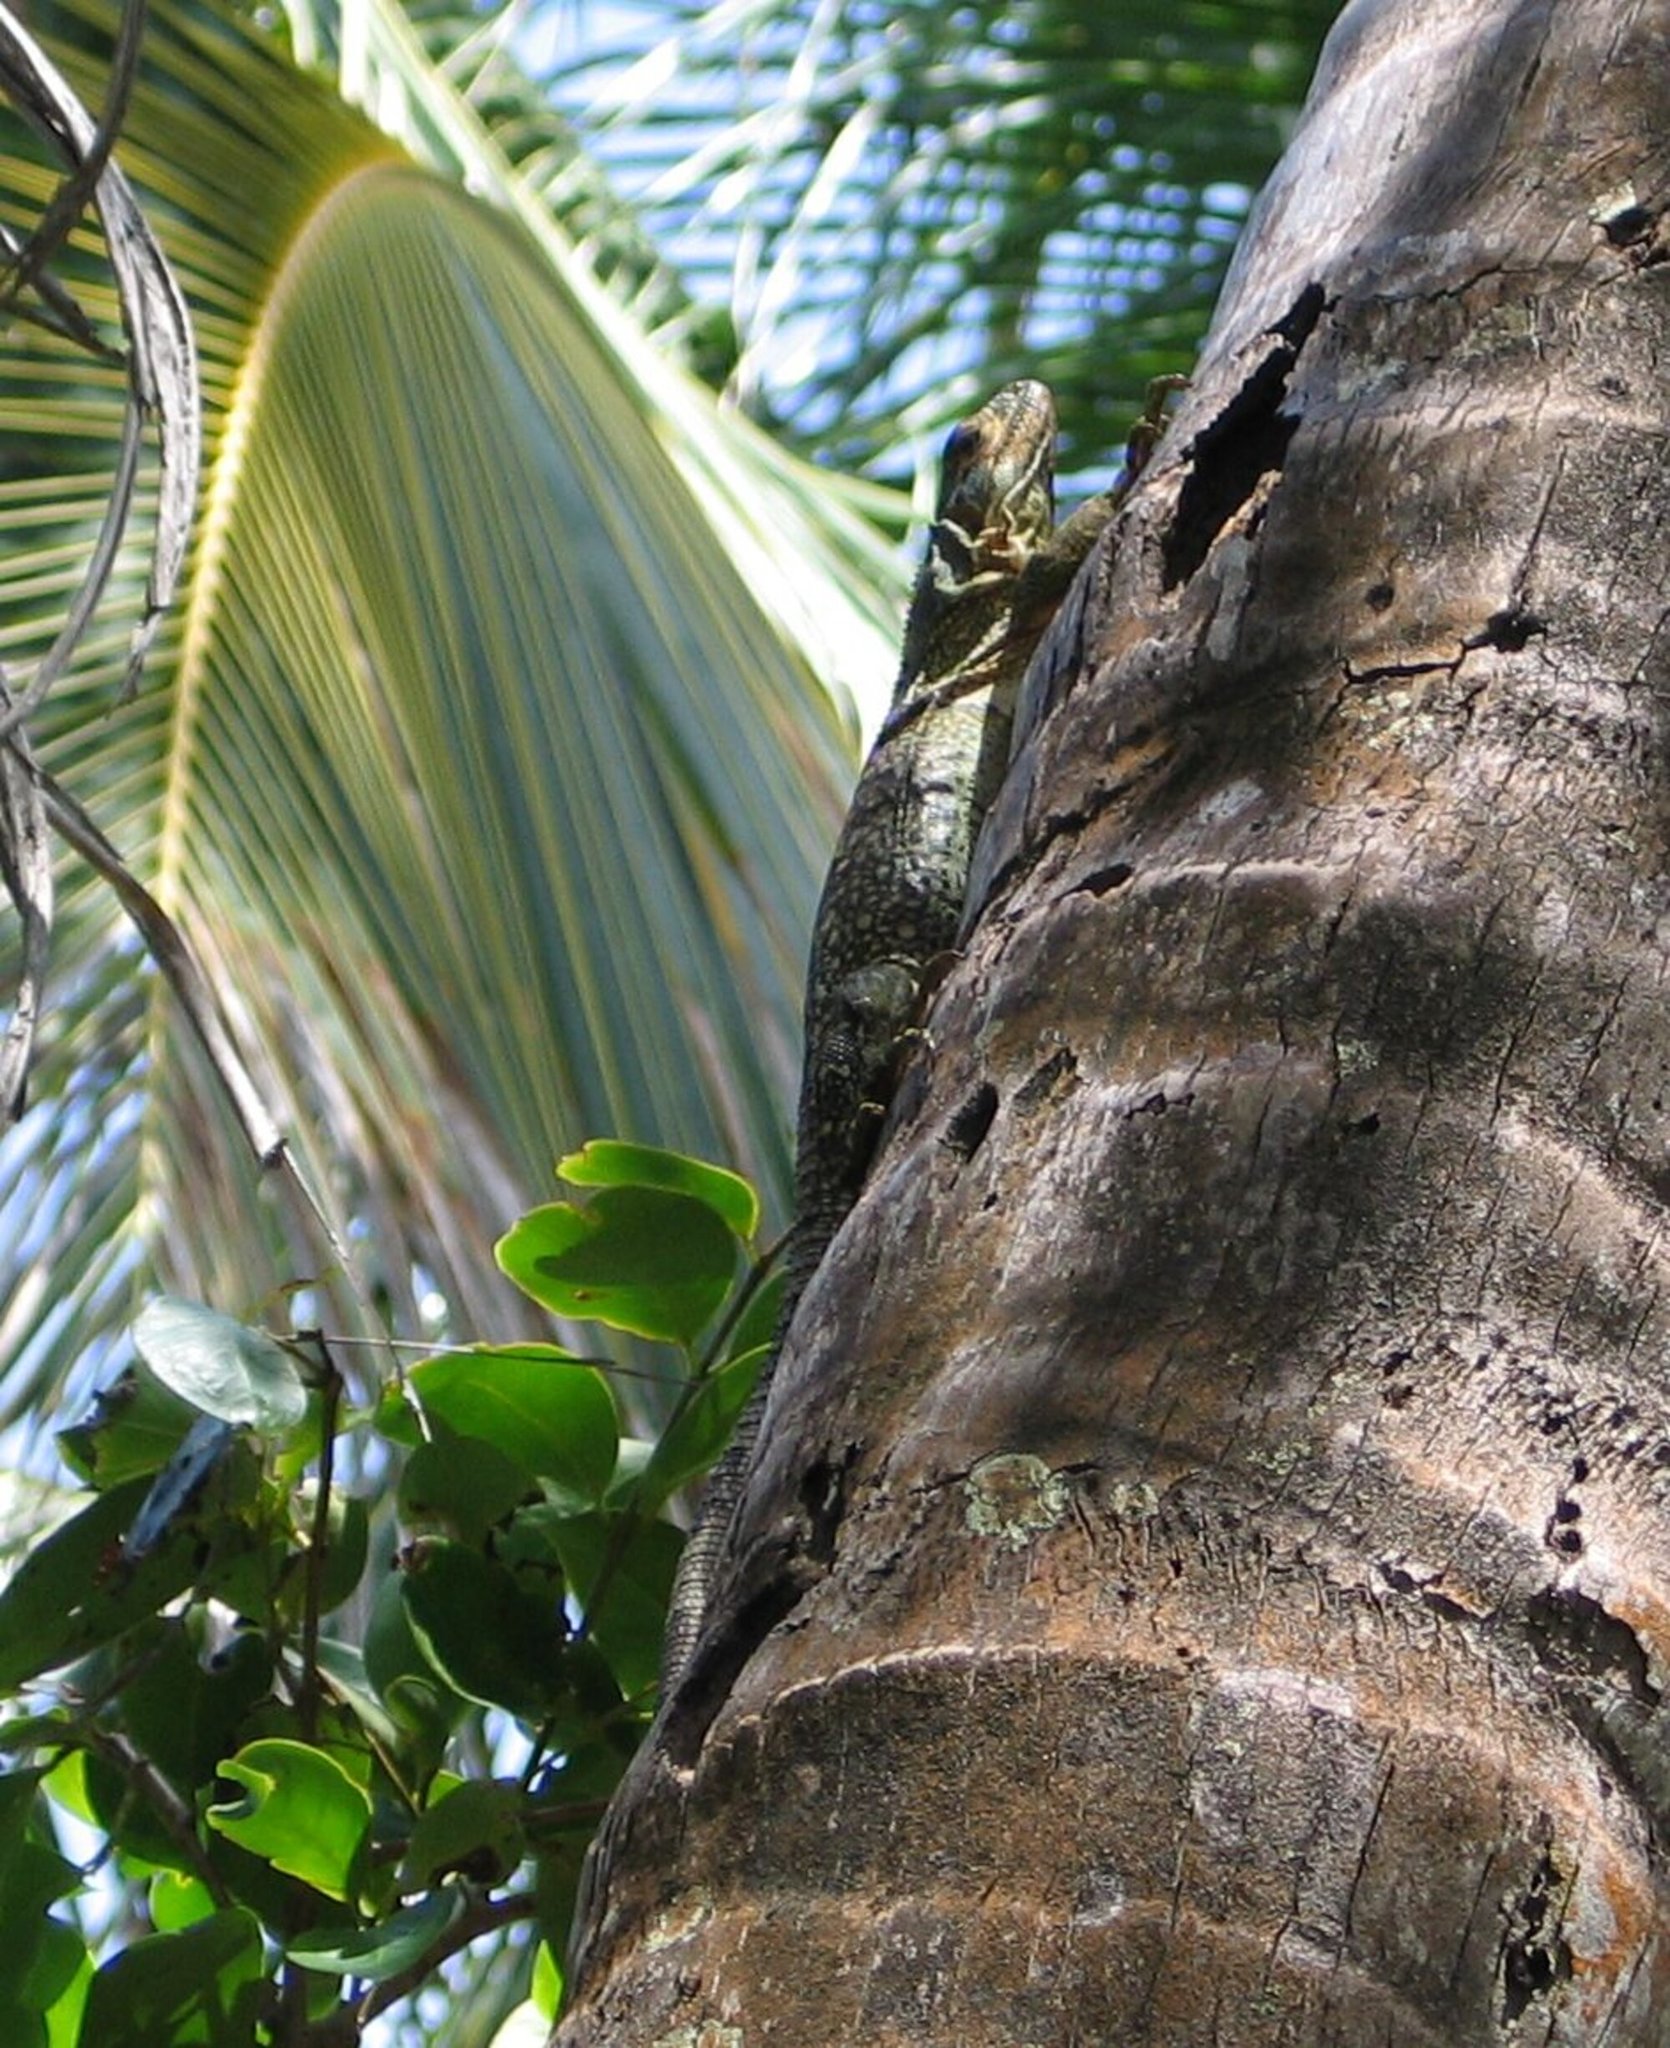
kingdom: Animalia
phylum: Chordata
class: Squamata
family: Iguanidae
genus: Ctenosaura
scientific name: Ctenosaura similis
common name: Black spiny-tailed iguana
